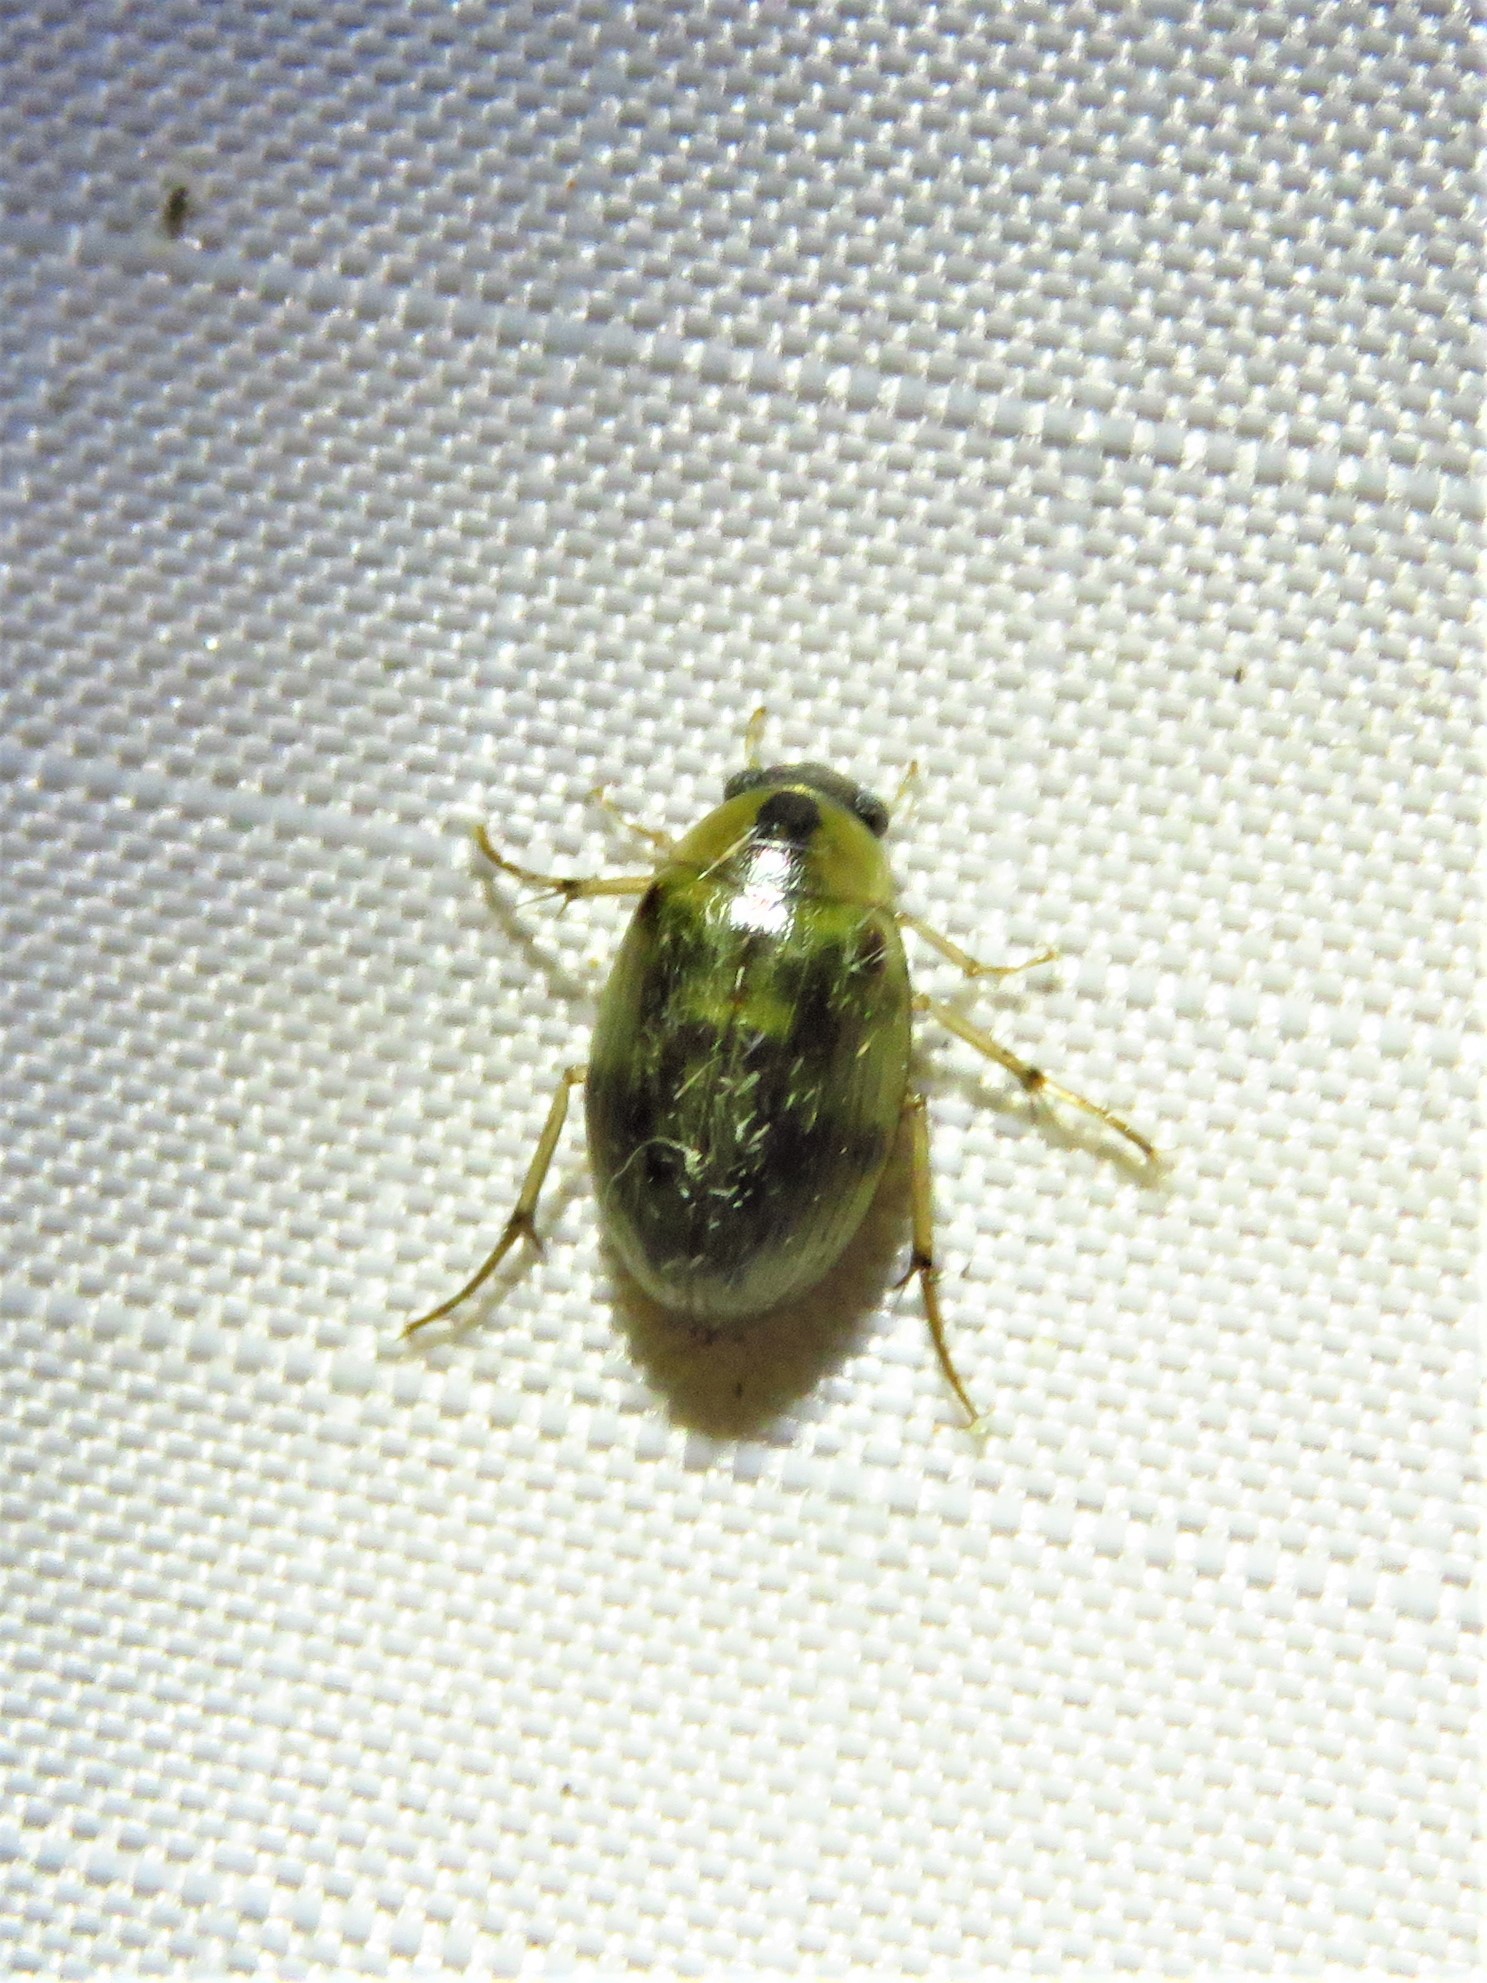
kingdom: Animalia
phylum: Arthropoda
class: Insecta
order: Coleoptera
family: Hydrophilidae
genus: Berosus
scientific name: Berosus miles
